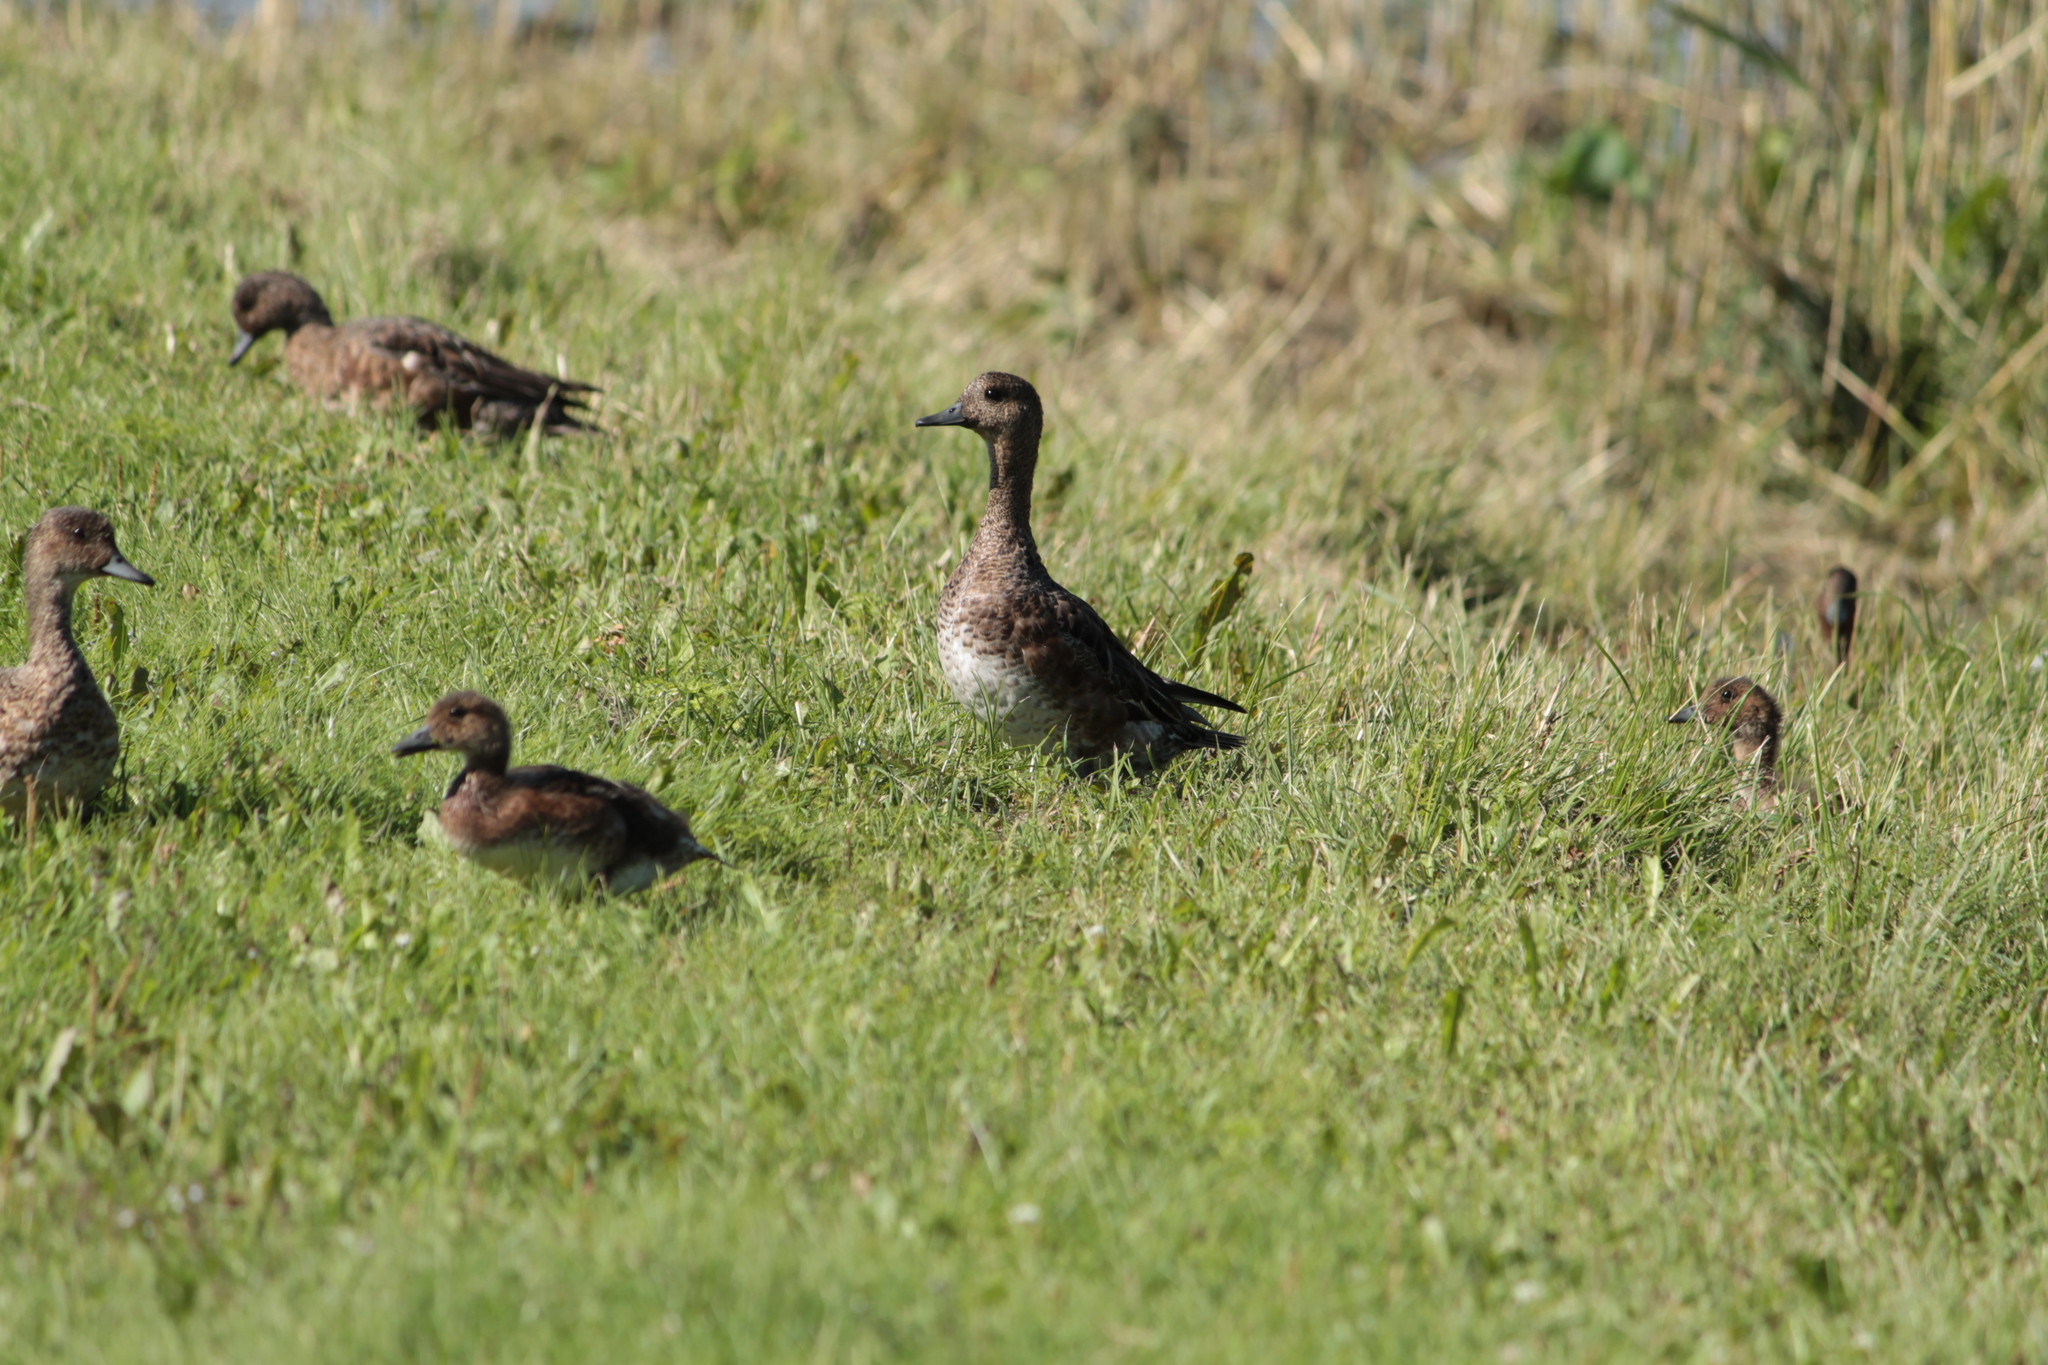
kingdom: Animalia
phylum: Chordata
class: Aves
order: Anseriformes
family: Anatidae
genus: Mareca
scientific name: Mareca penelope
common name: Eurasian wigeon
